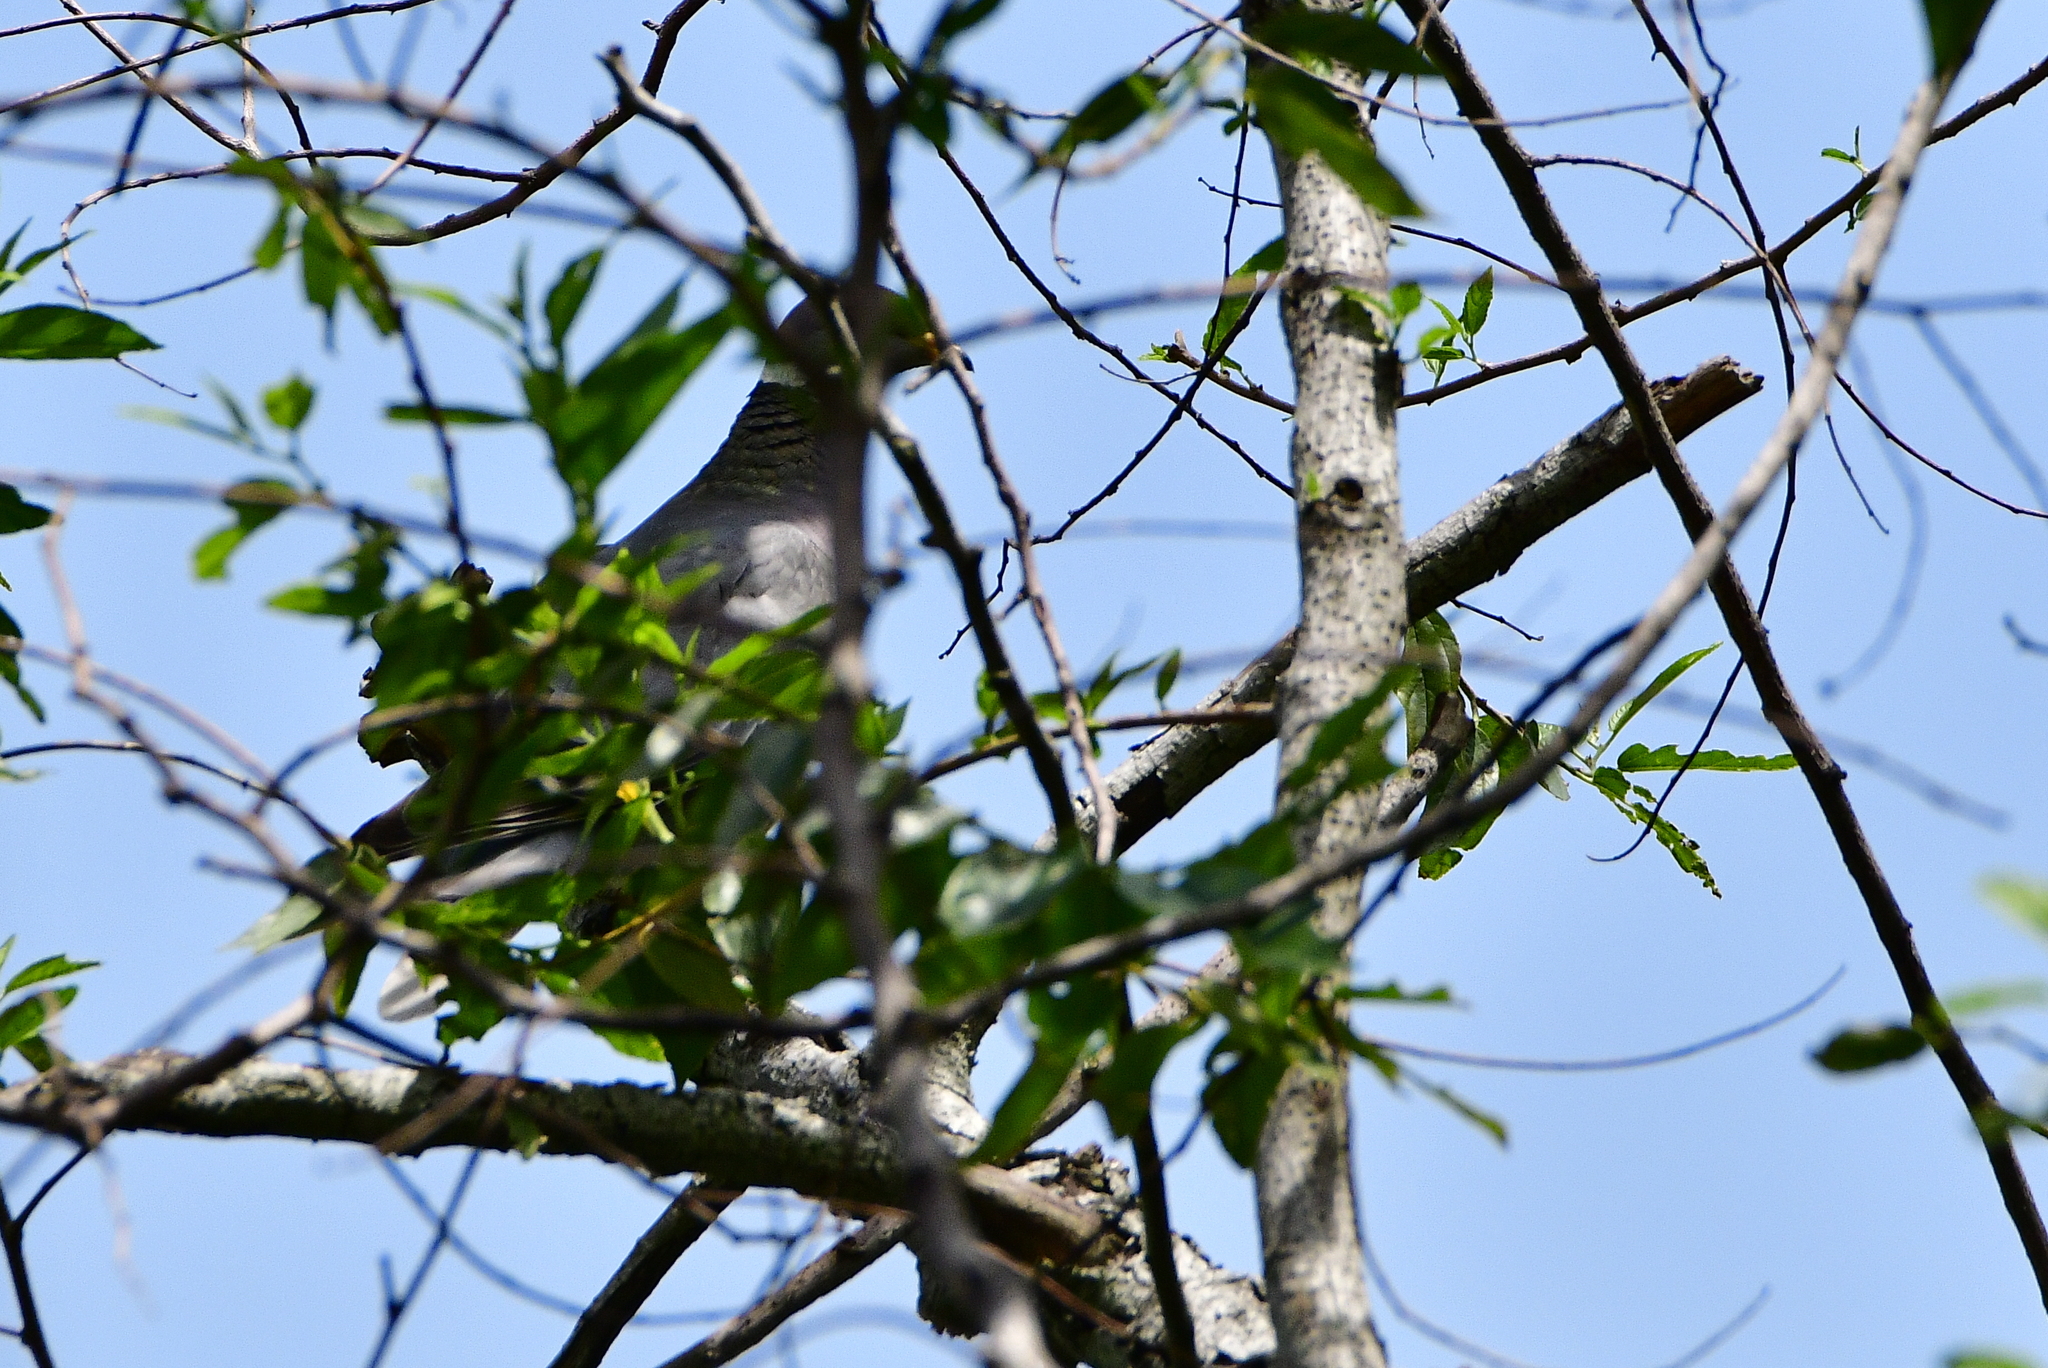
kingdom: Animalia
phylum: Chordata
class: Aves
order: Columbiformes
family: Columbidae
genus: Patagioenas
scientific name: Patagioenas fasciata
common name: Band-tailed pigeon
